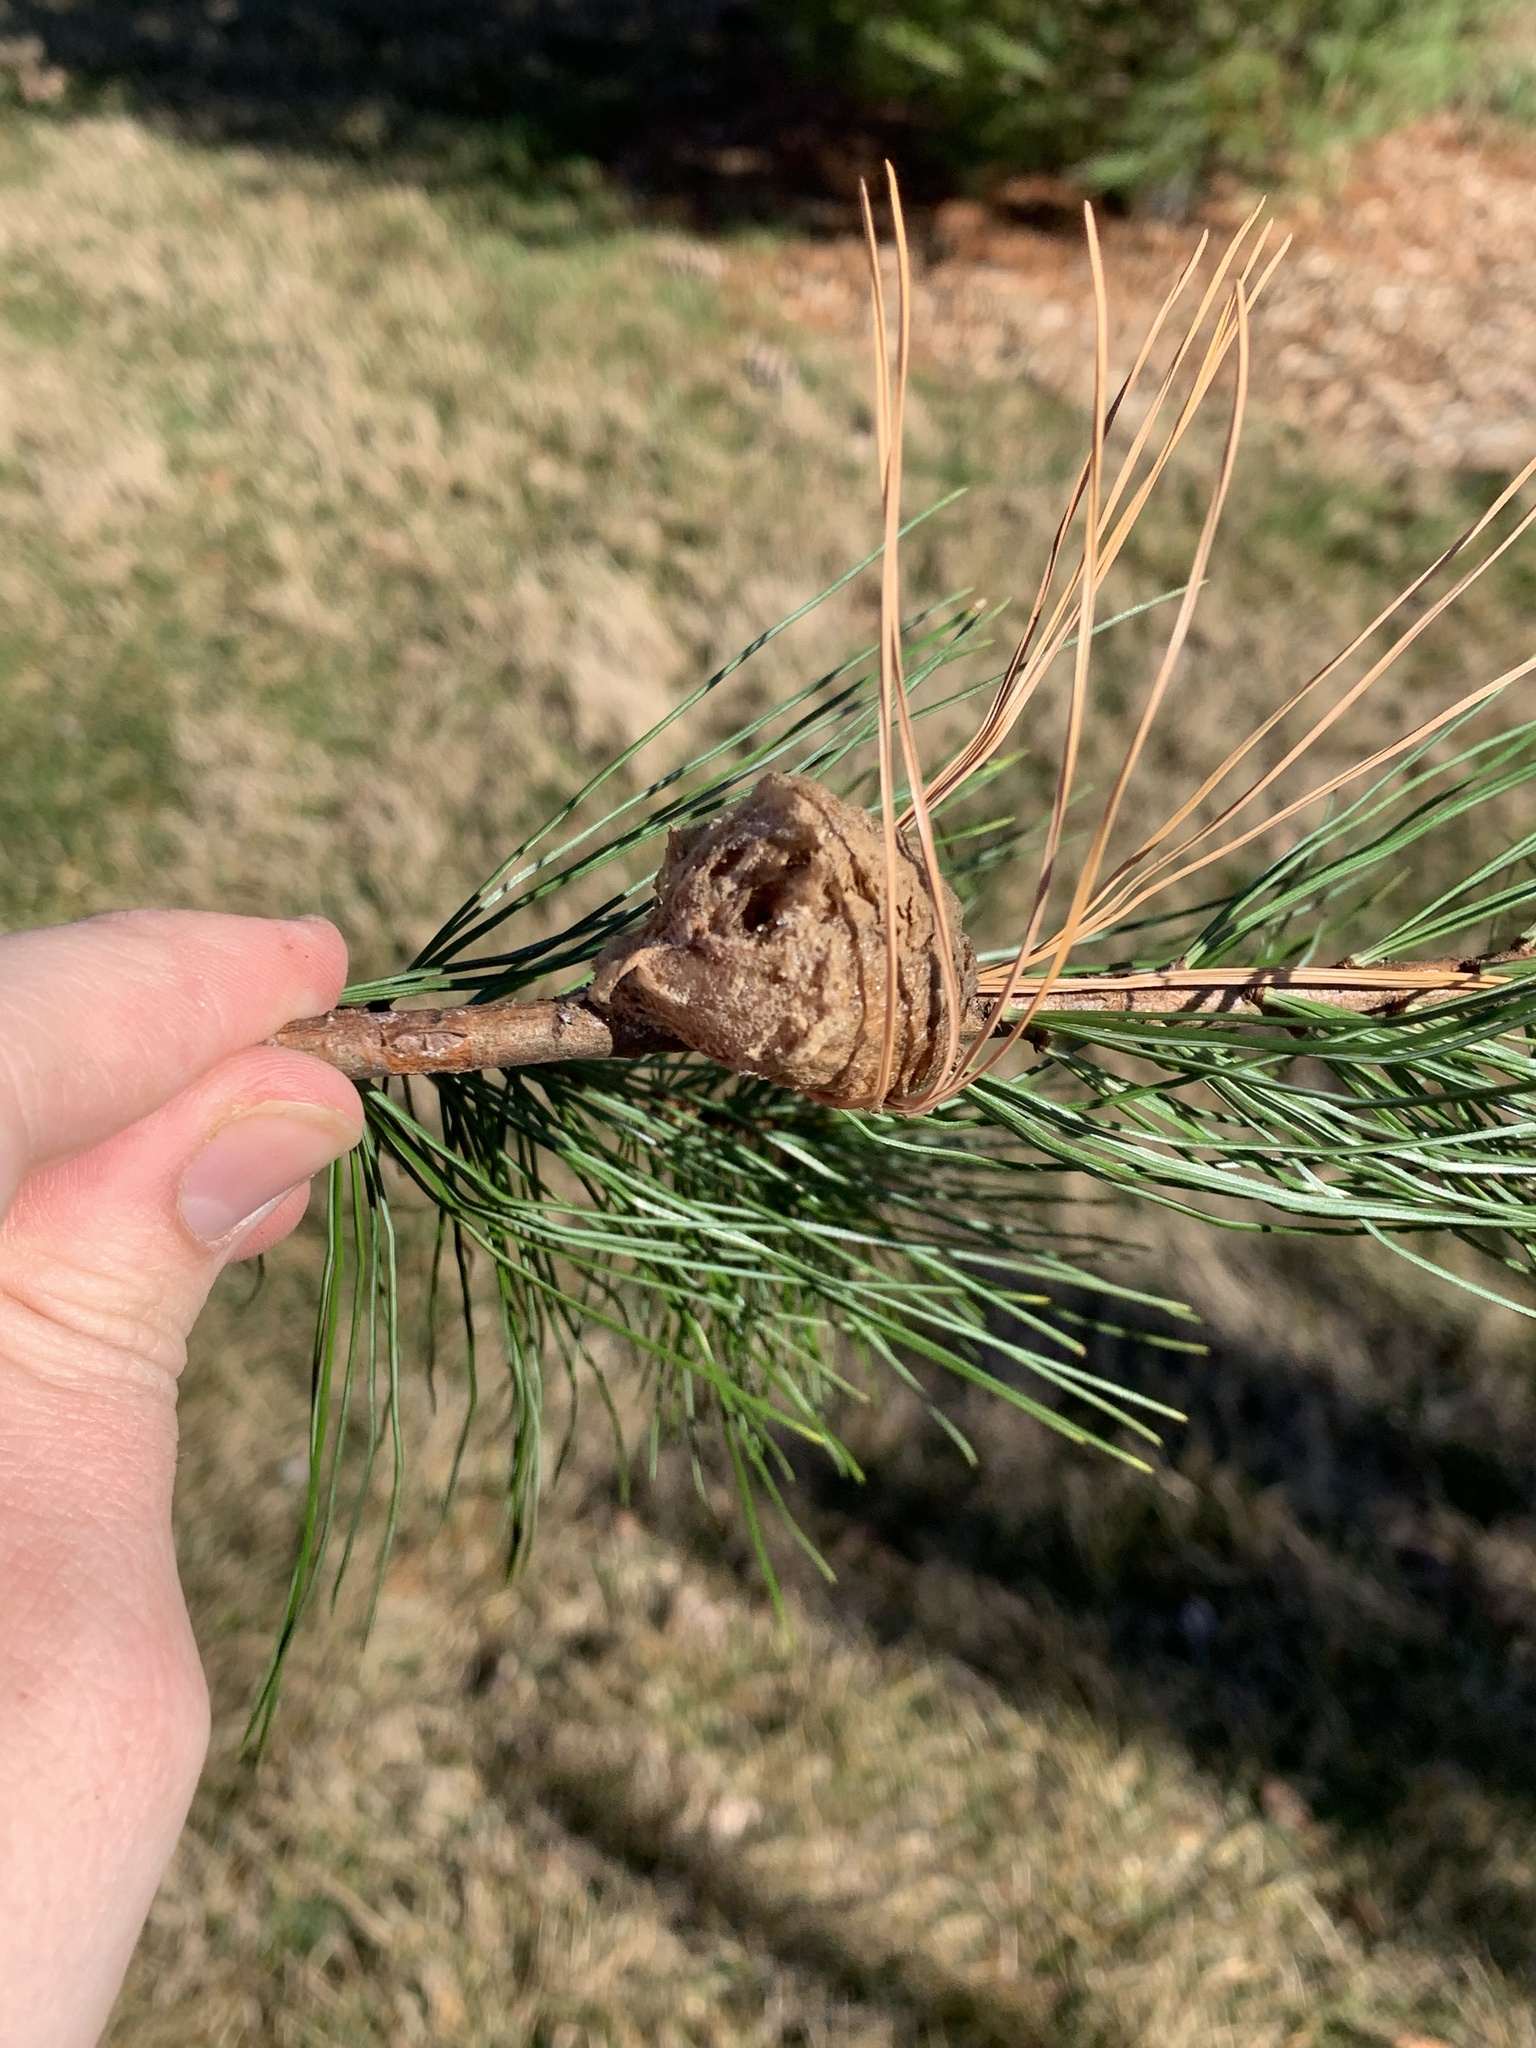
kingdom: Animalia
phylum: Arthropoda
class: Insecta
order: Mantodea
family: Mantidae
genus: Tenodera
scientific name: Tenodera sinensis
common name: Chinese mantis
